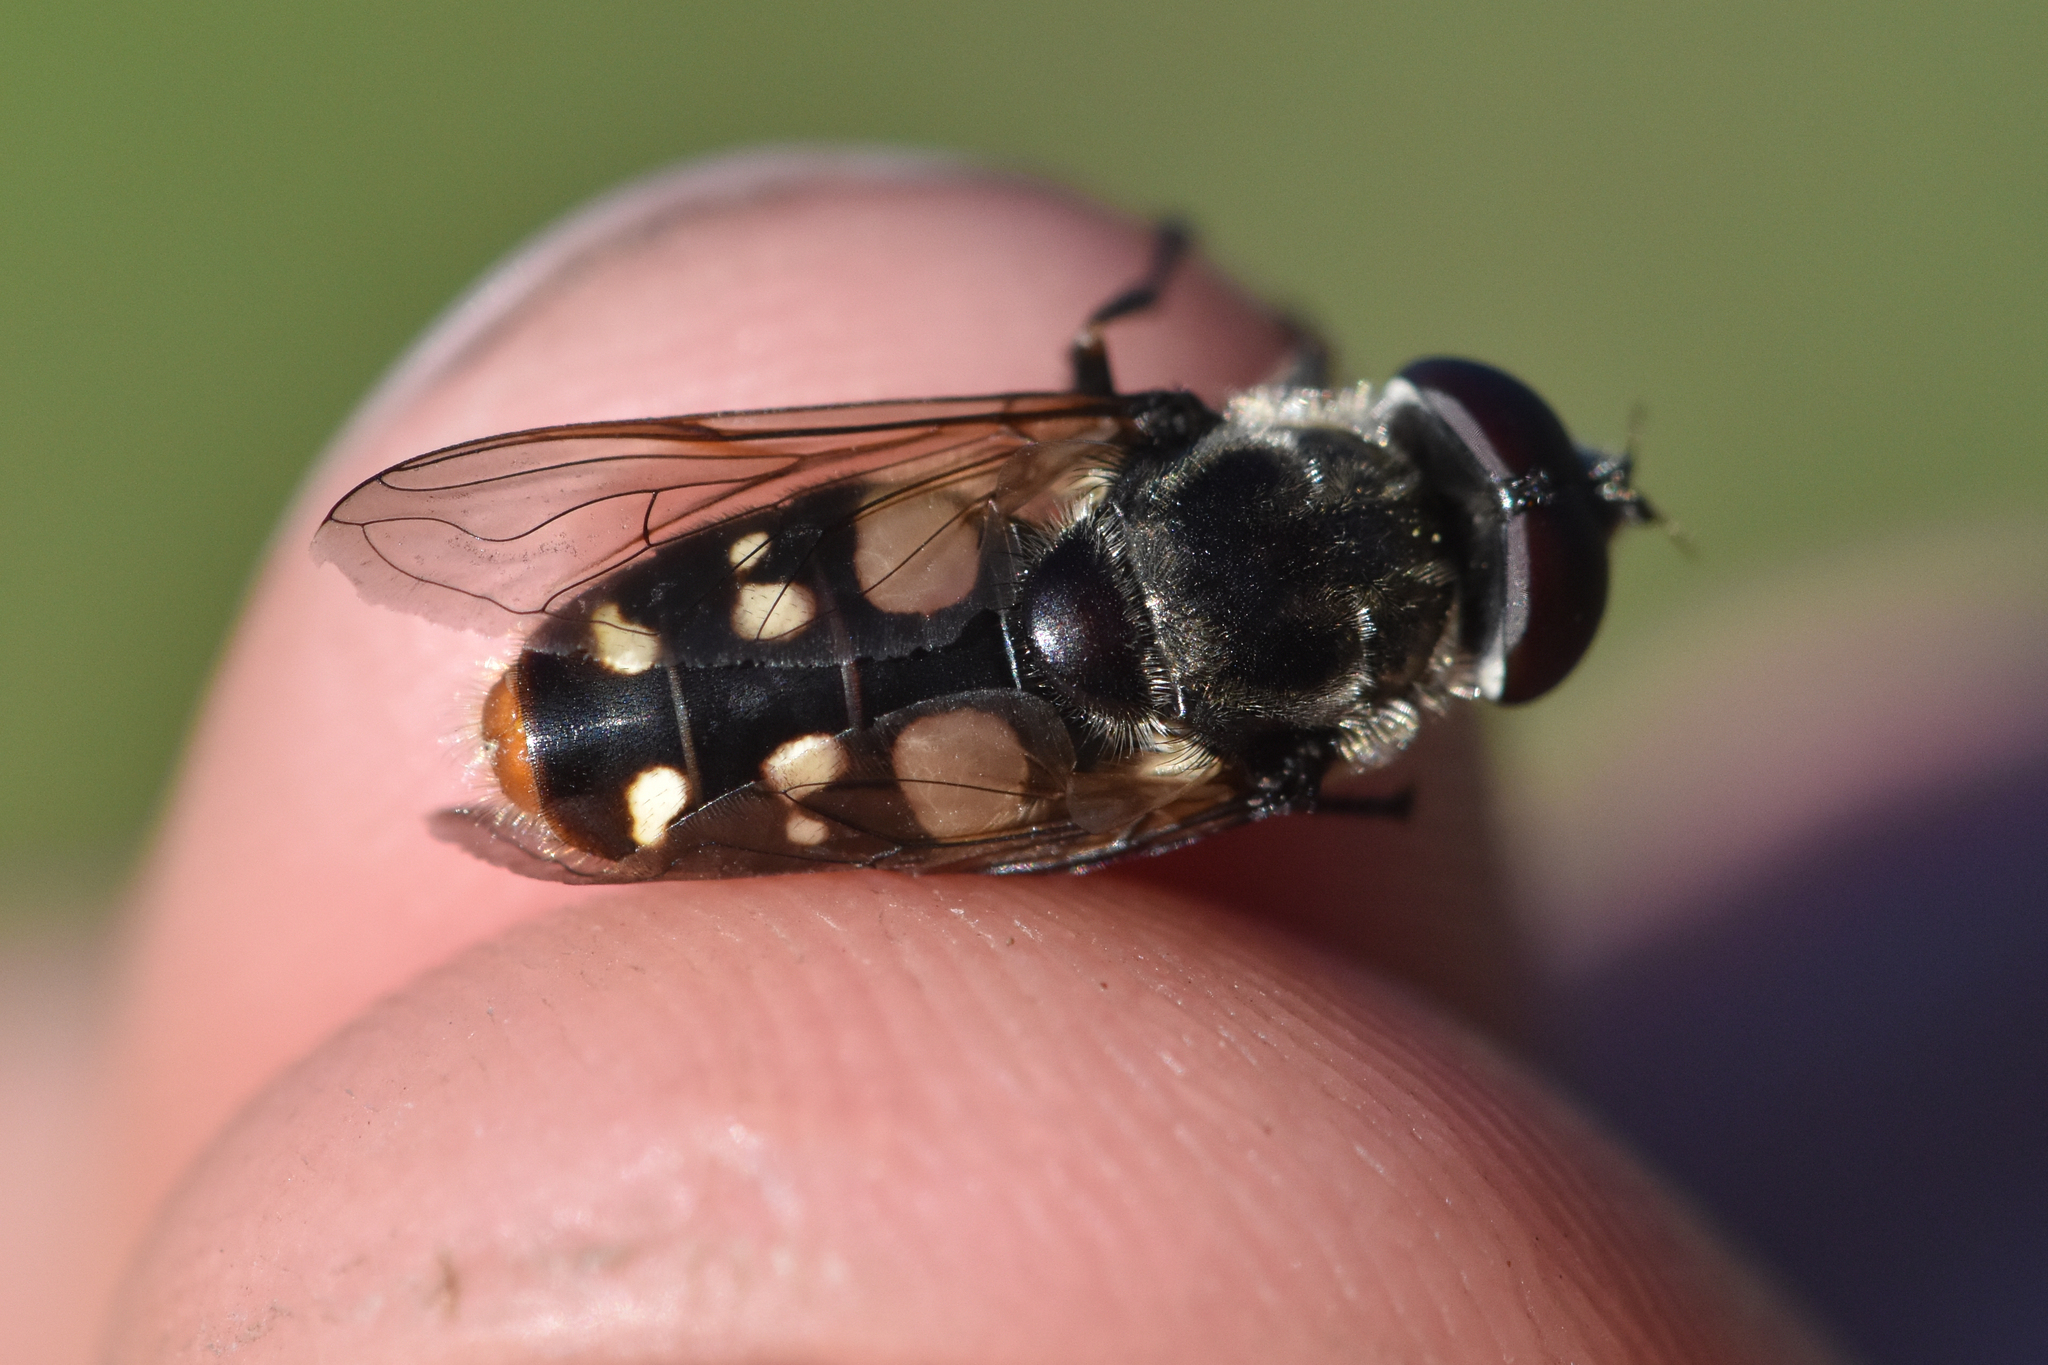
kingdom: Animalia
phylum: Arthropoda
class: Insecta
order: Diptera
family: Syrphidae
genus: Sericomyia
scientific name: Sericomyia lata
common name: White-spotted pond fly
